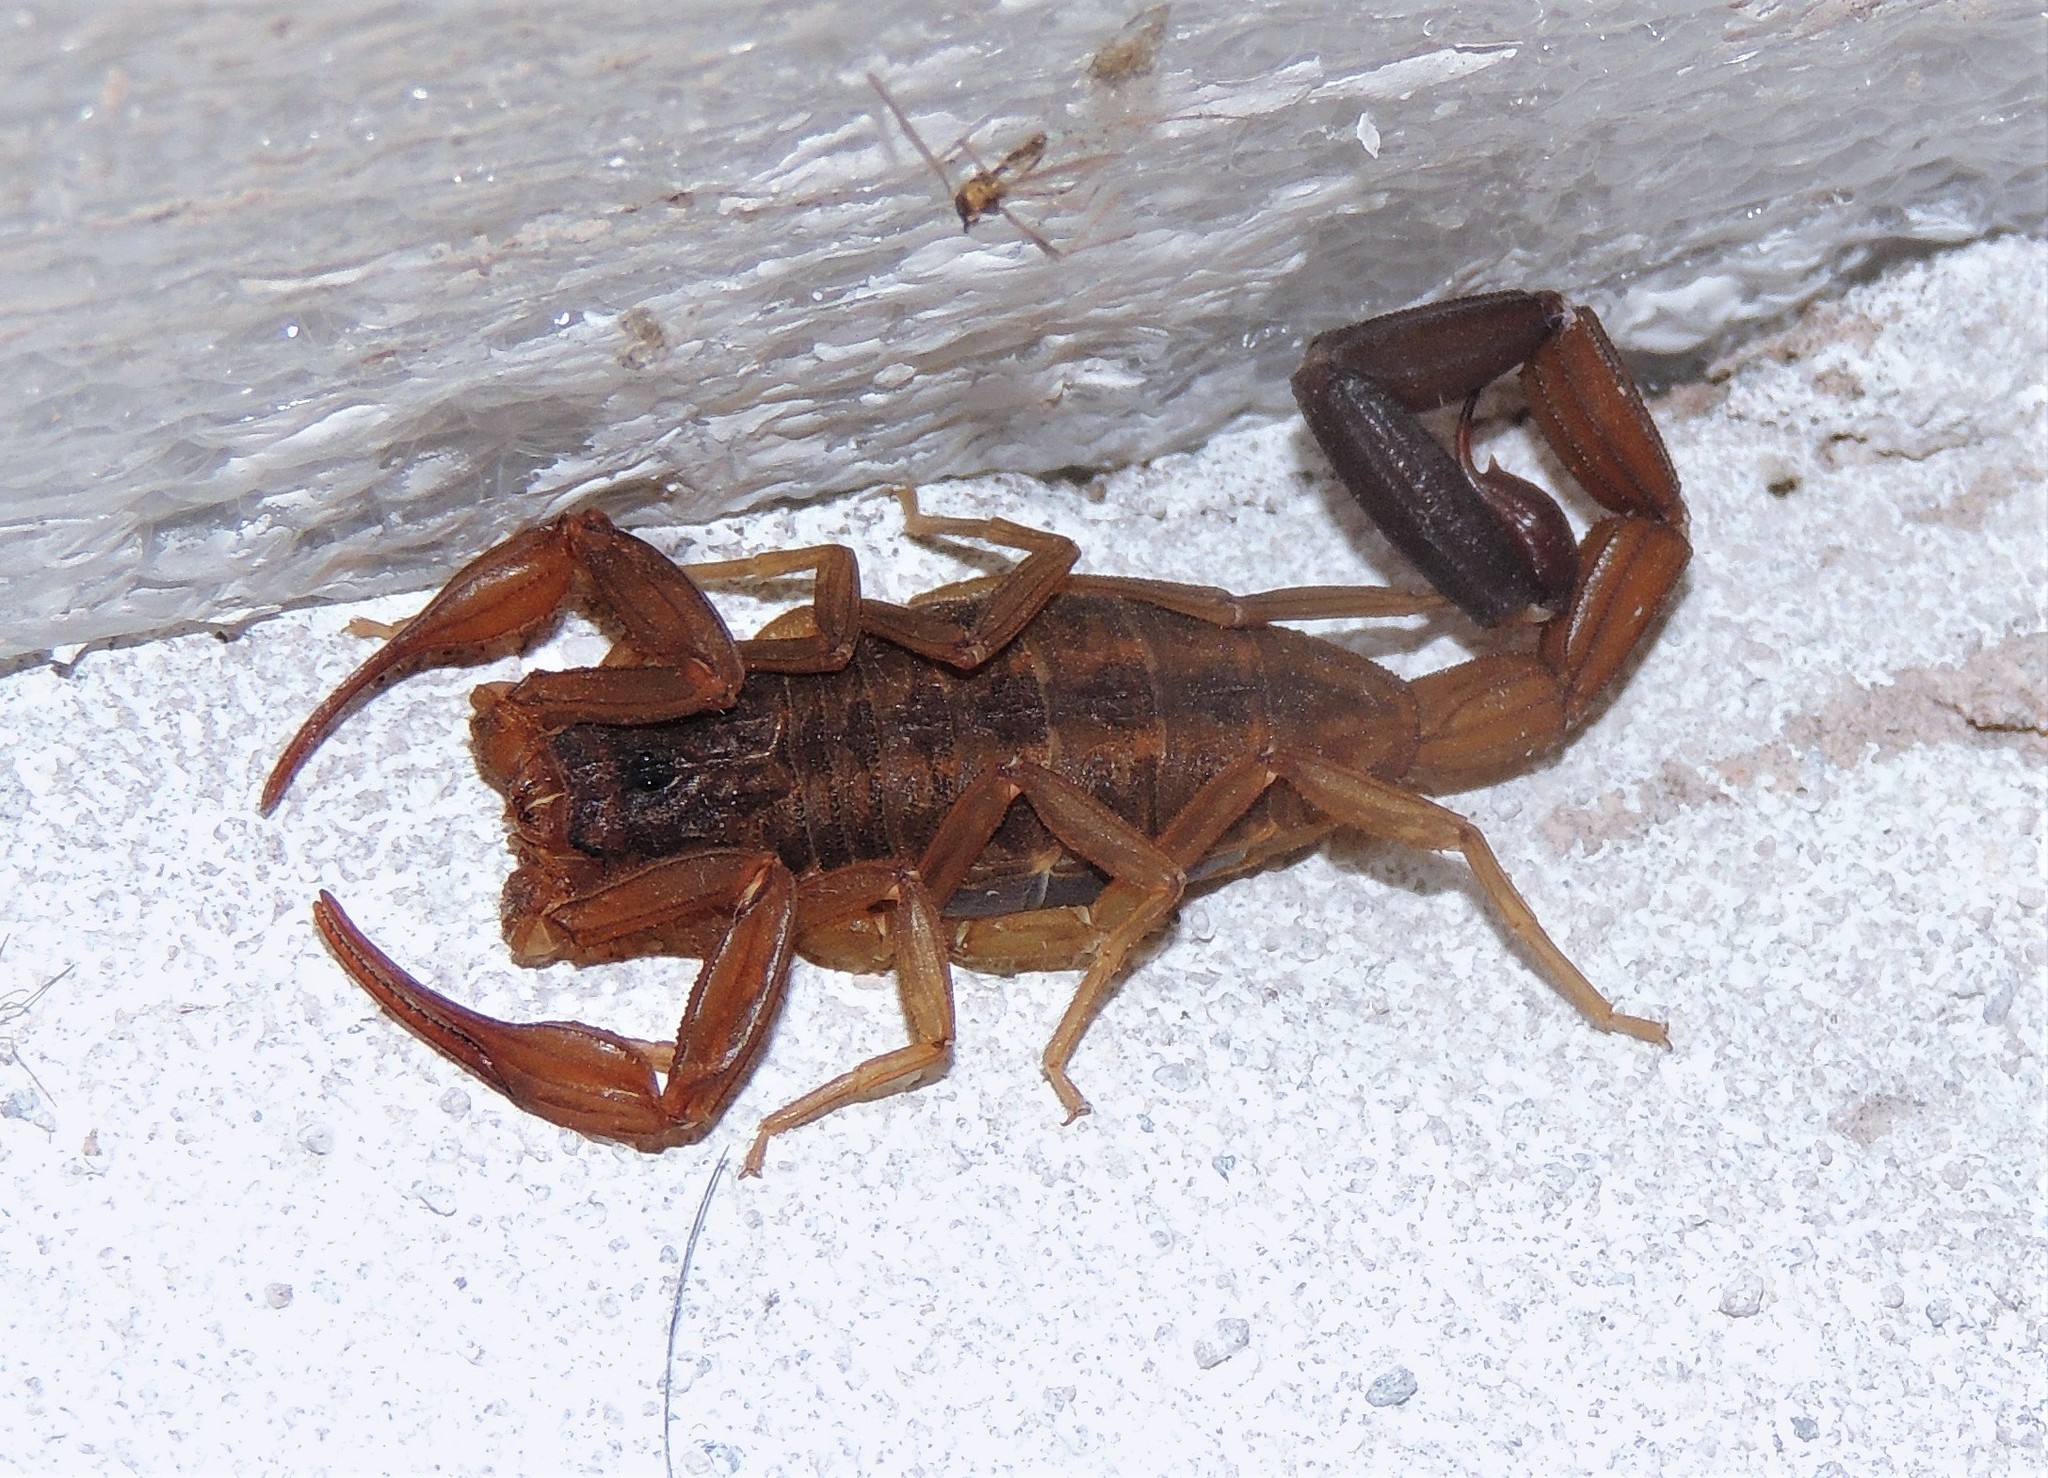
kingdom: Animalia
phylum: Arthropoda
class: Arachnida
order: Scorpiones
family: Buthidae
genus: Tityus
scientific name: Tityus argentinus
